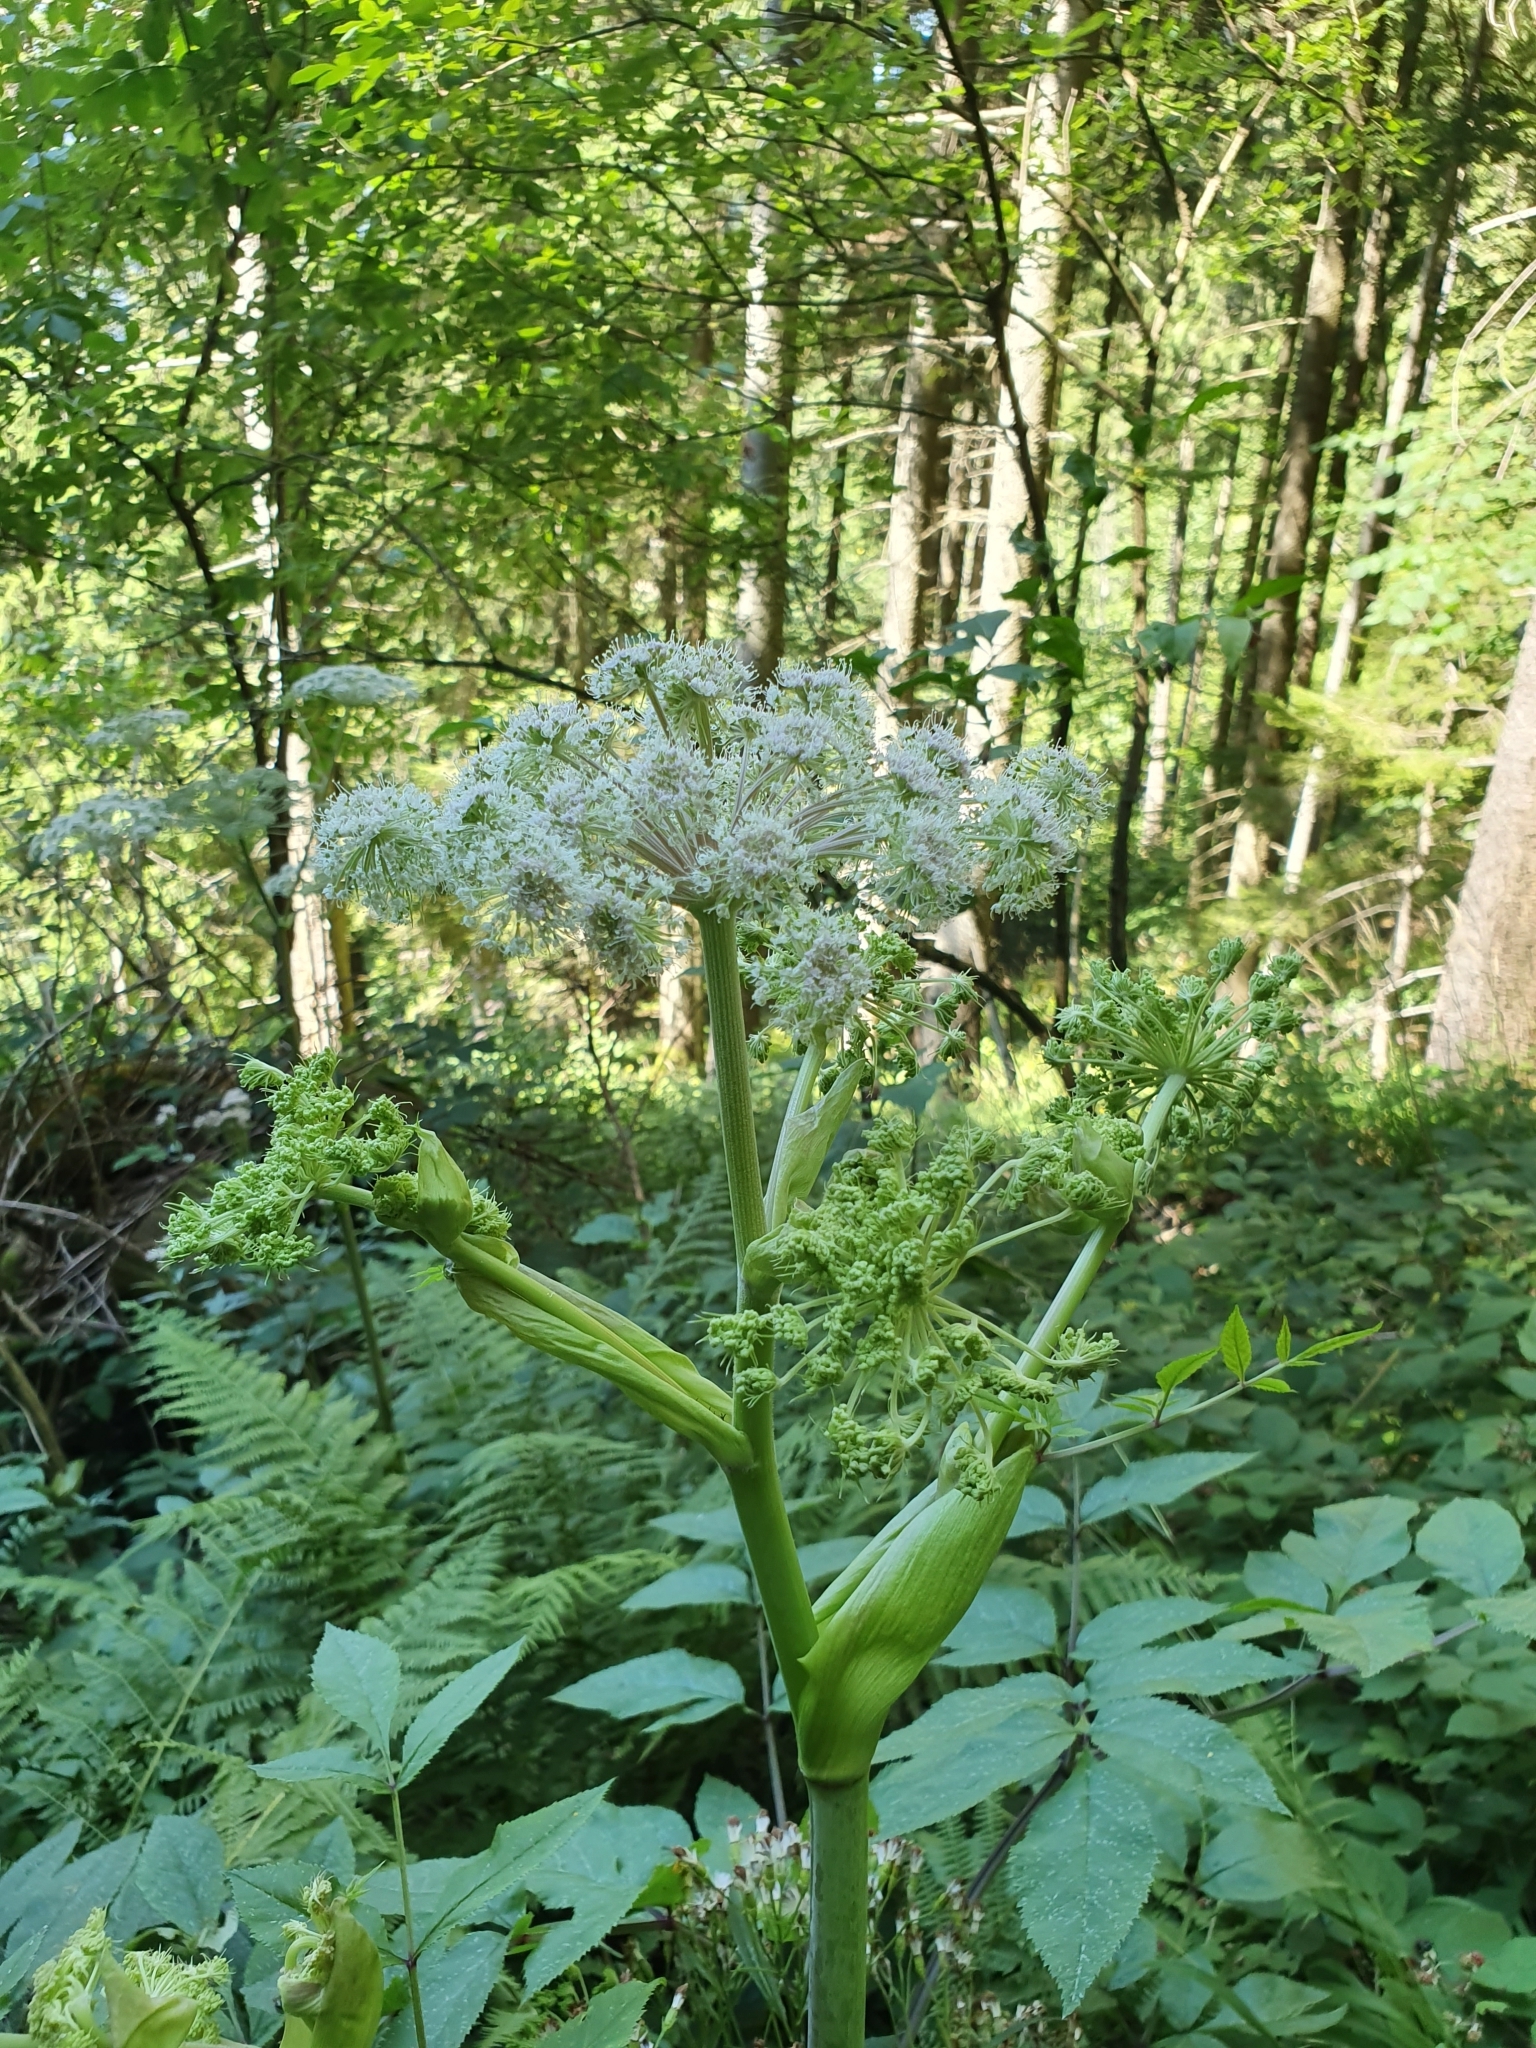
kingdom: Plantae
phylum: Tracheophyta
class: Magnoliopsida
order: Apiales
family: Apiaceae
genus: Angelica
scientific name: Angelica sylvestris
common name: Wild angelica
